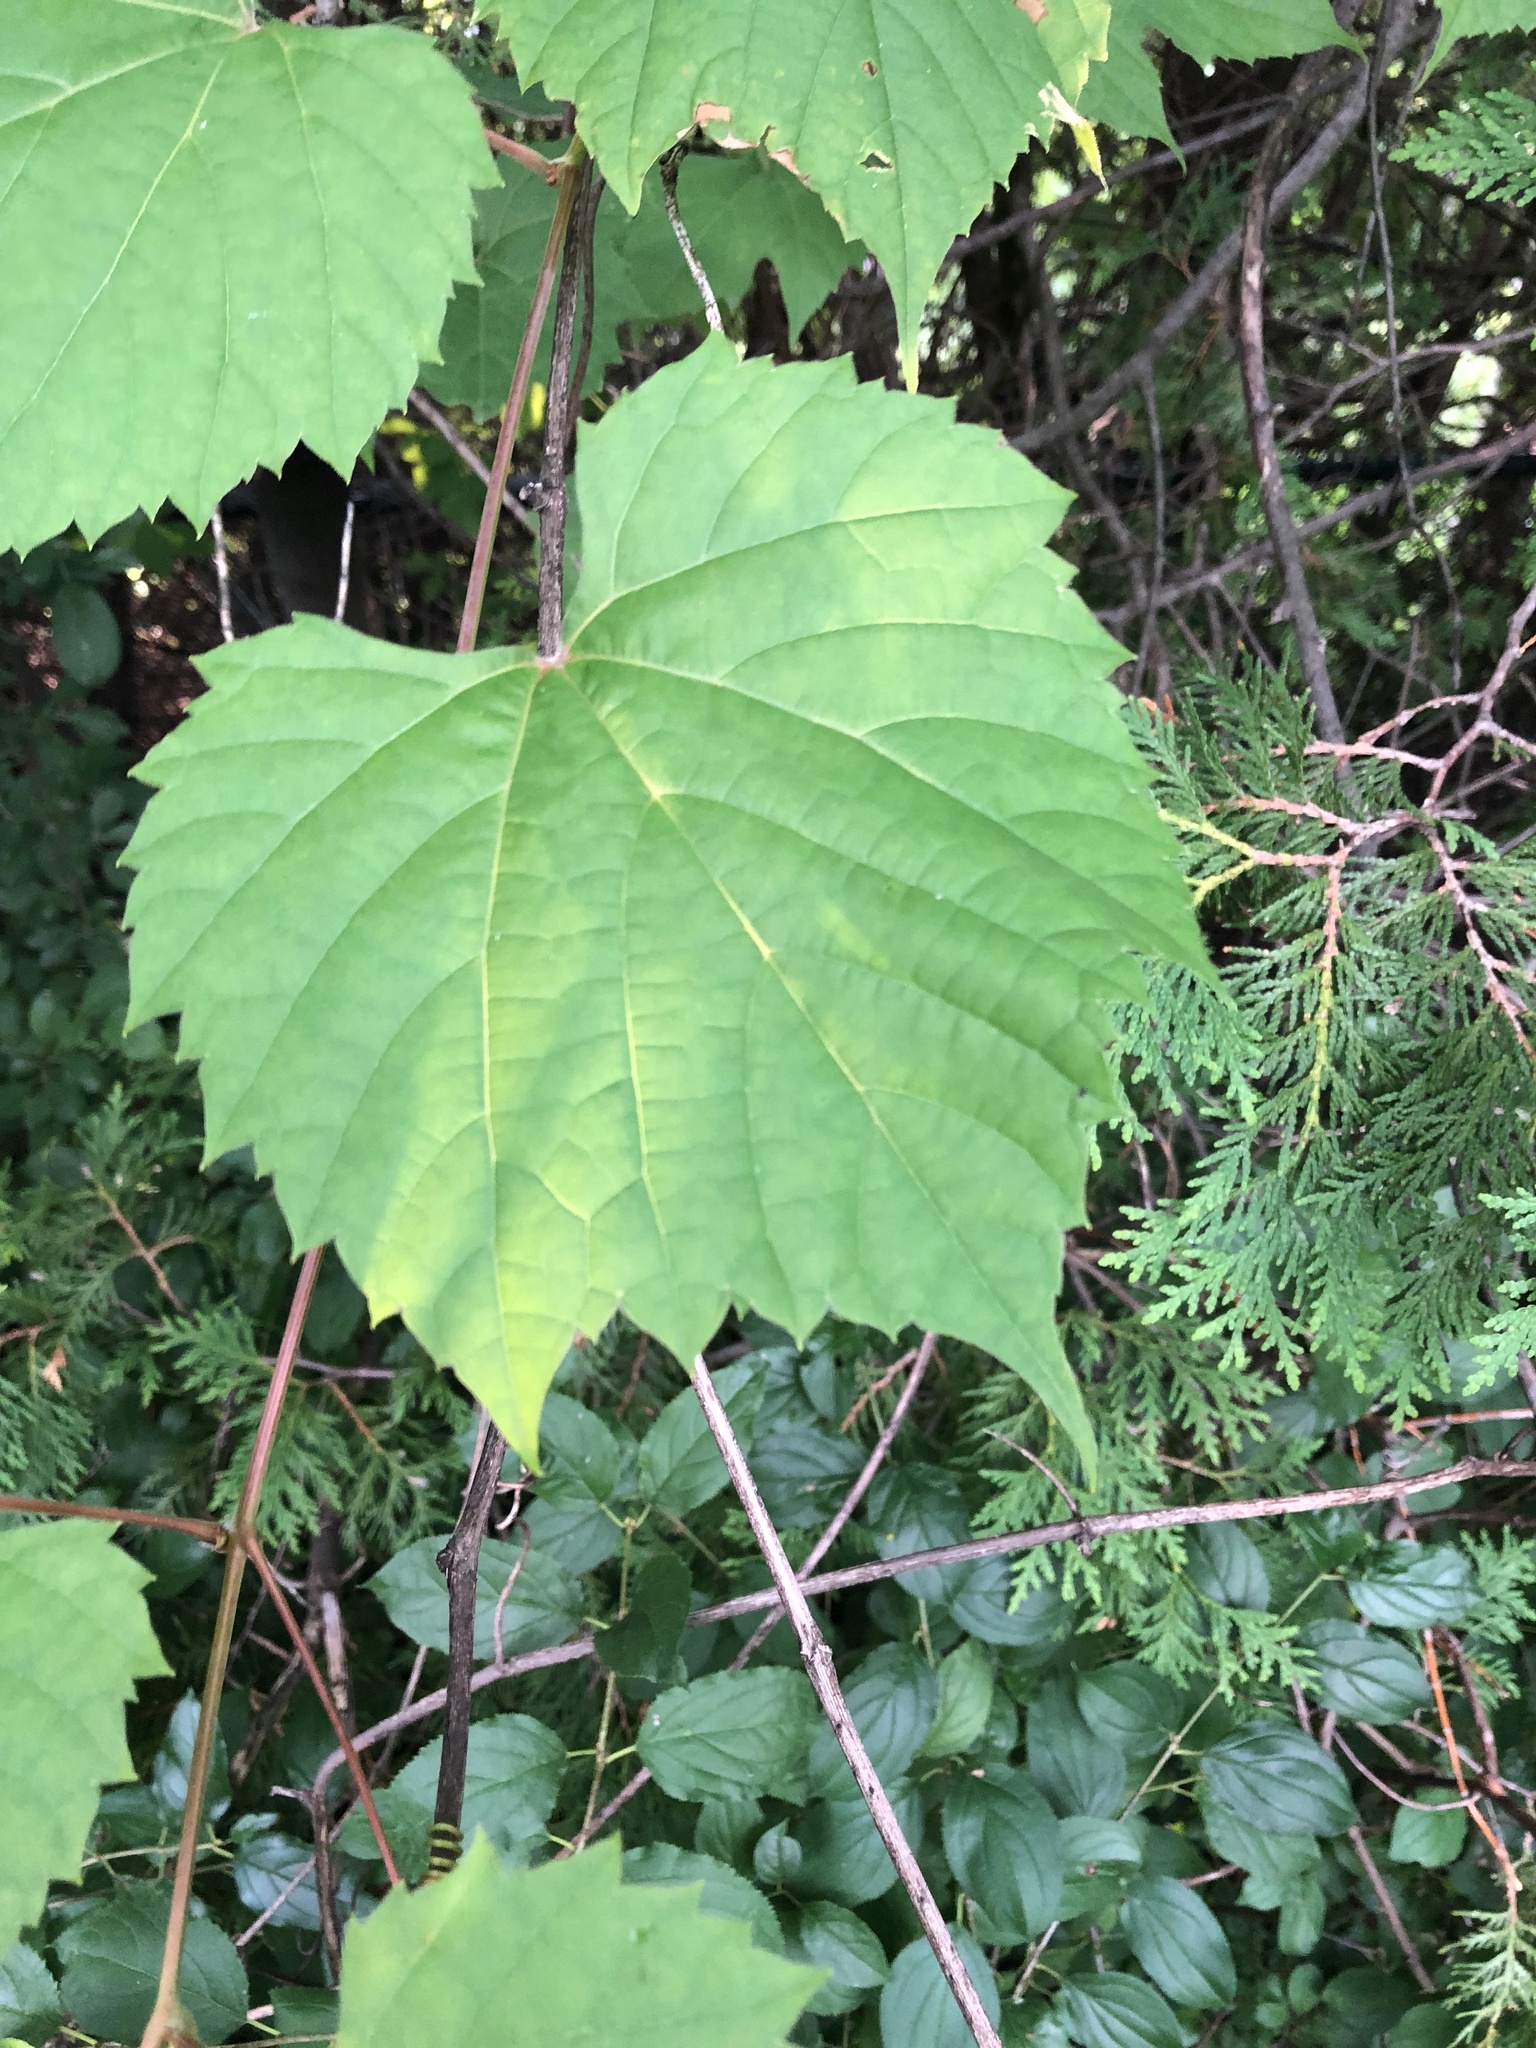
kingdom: Plantae
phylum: Tracheophyta
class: Magnoliopsida
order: Vitales
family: Vitaceae
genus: Vitis
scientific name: Vitis riparia
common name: Frost grape
